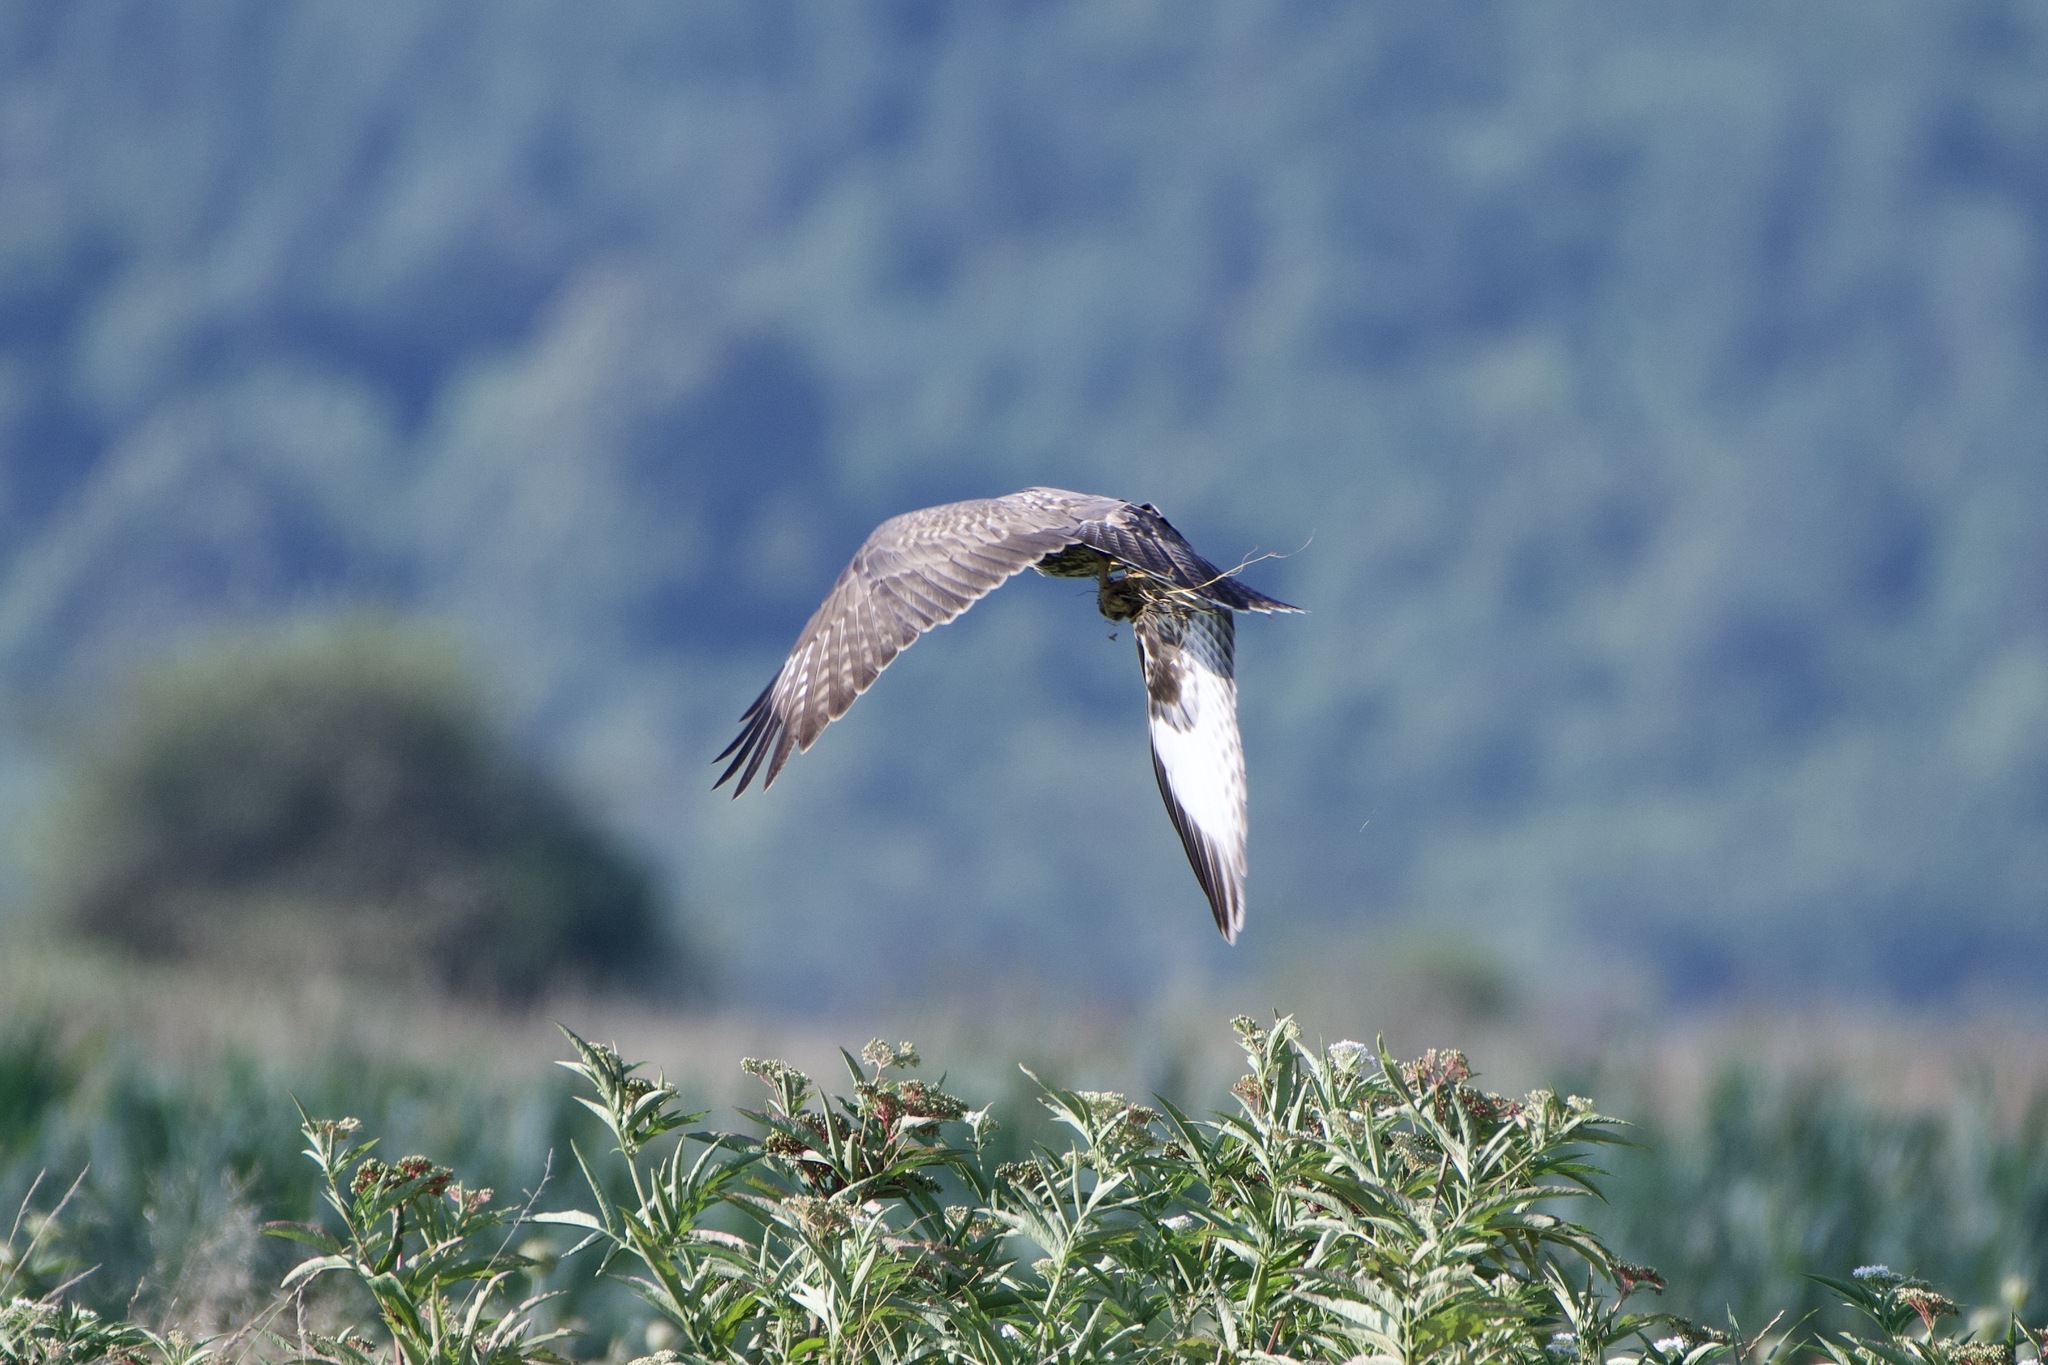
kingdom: Animalia
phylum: Chordata
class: Aves
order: Accipitriformes
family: Accipitridae
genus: Buteo
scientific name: Buteo buteo
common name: Common buzzard
